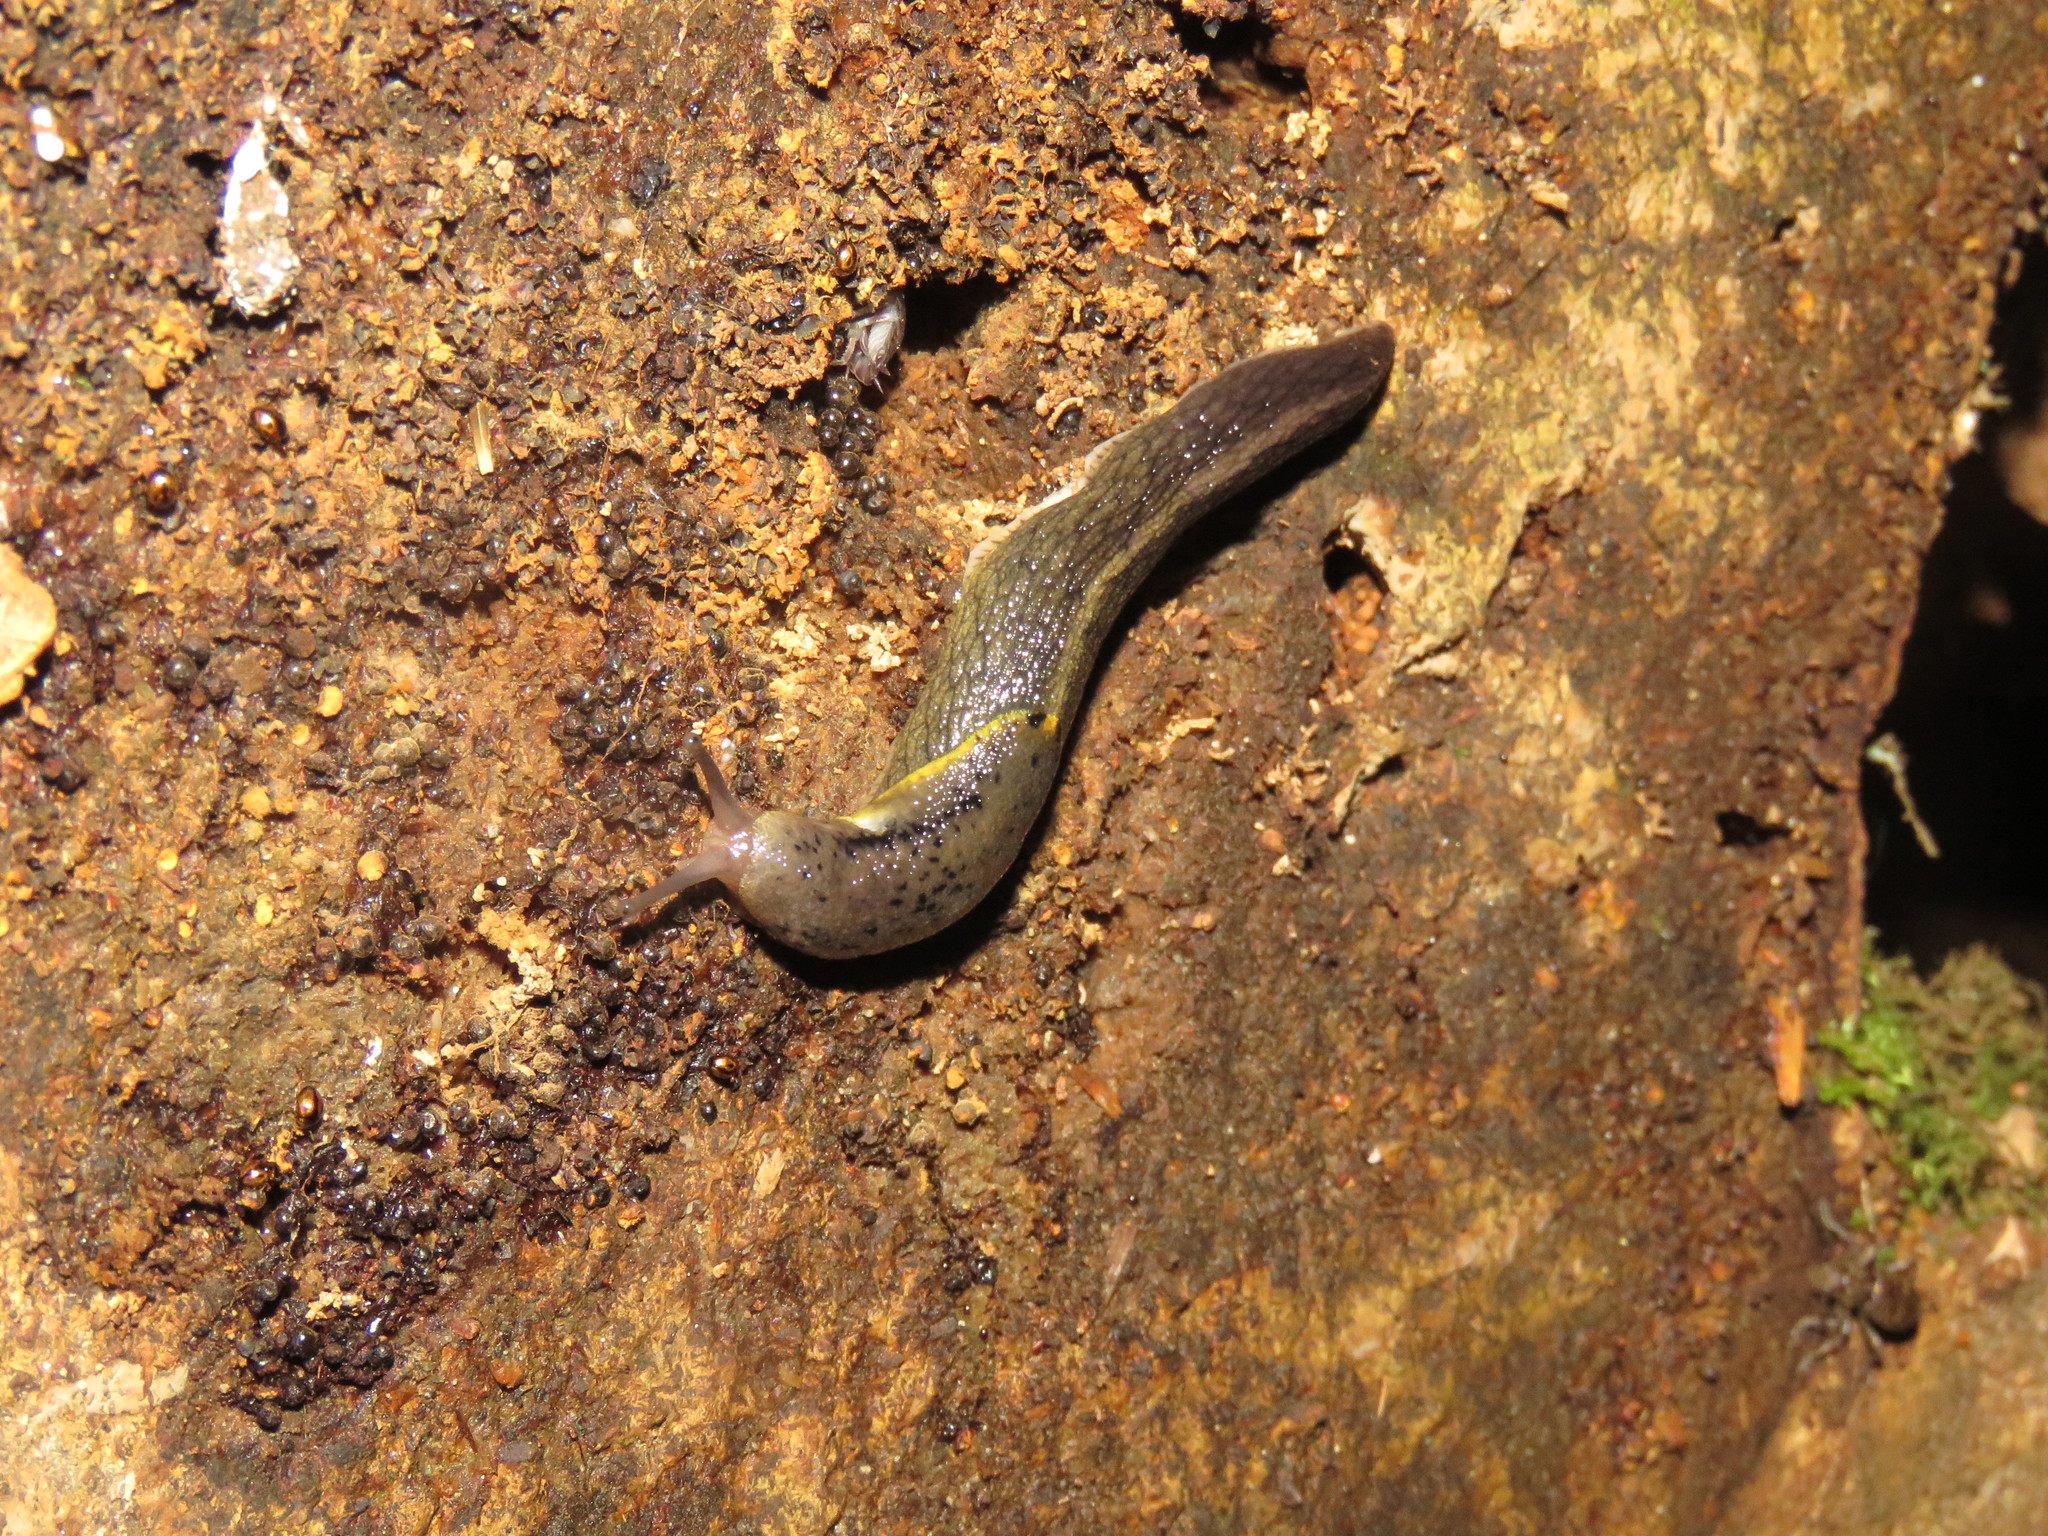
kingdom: Animalia
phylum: Mollusca
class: Gastropoda
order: Stylommatophora
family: Ariolimacidae
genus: Prophysaon
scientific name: Prophysaon foliolatum
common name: Yellow-bordered taildropper
